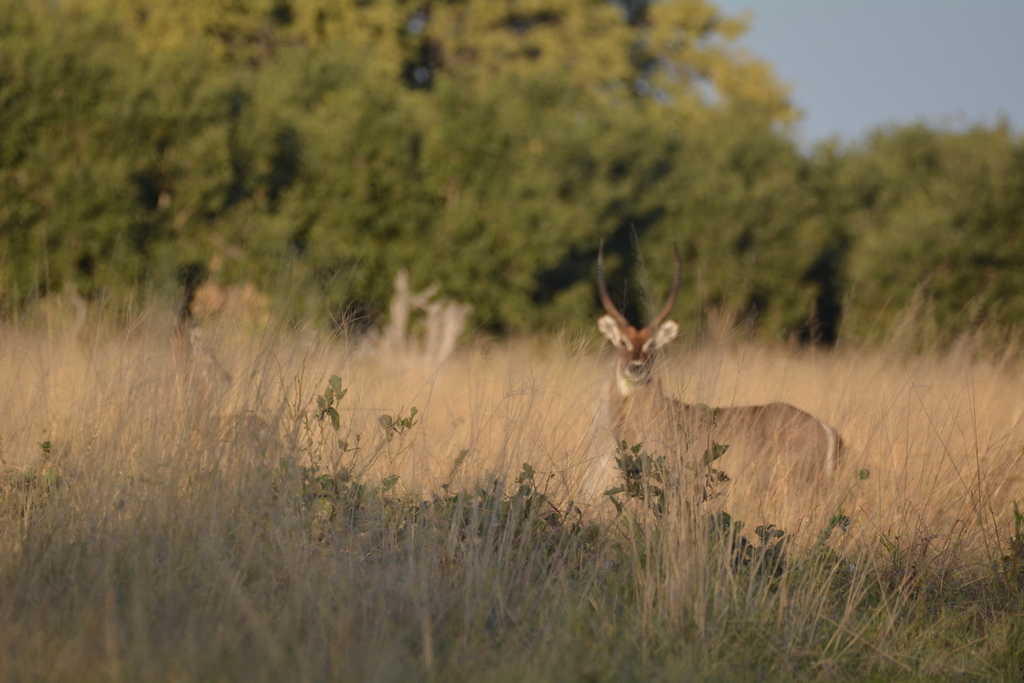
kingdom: Animalia
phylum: Chordata
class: Mammalia
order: Artiodactyla
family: Bovidae
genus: Kobus
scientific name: Kobus ellipsiprymnus
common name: Waterbuck
